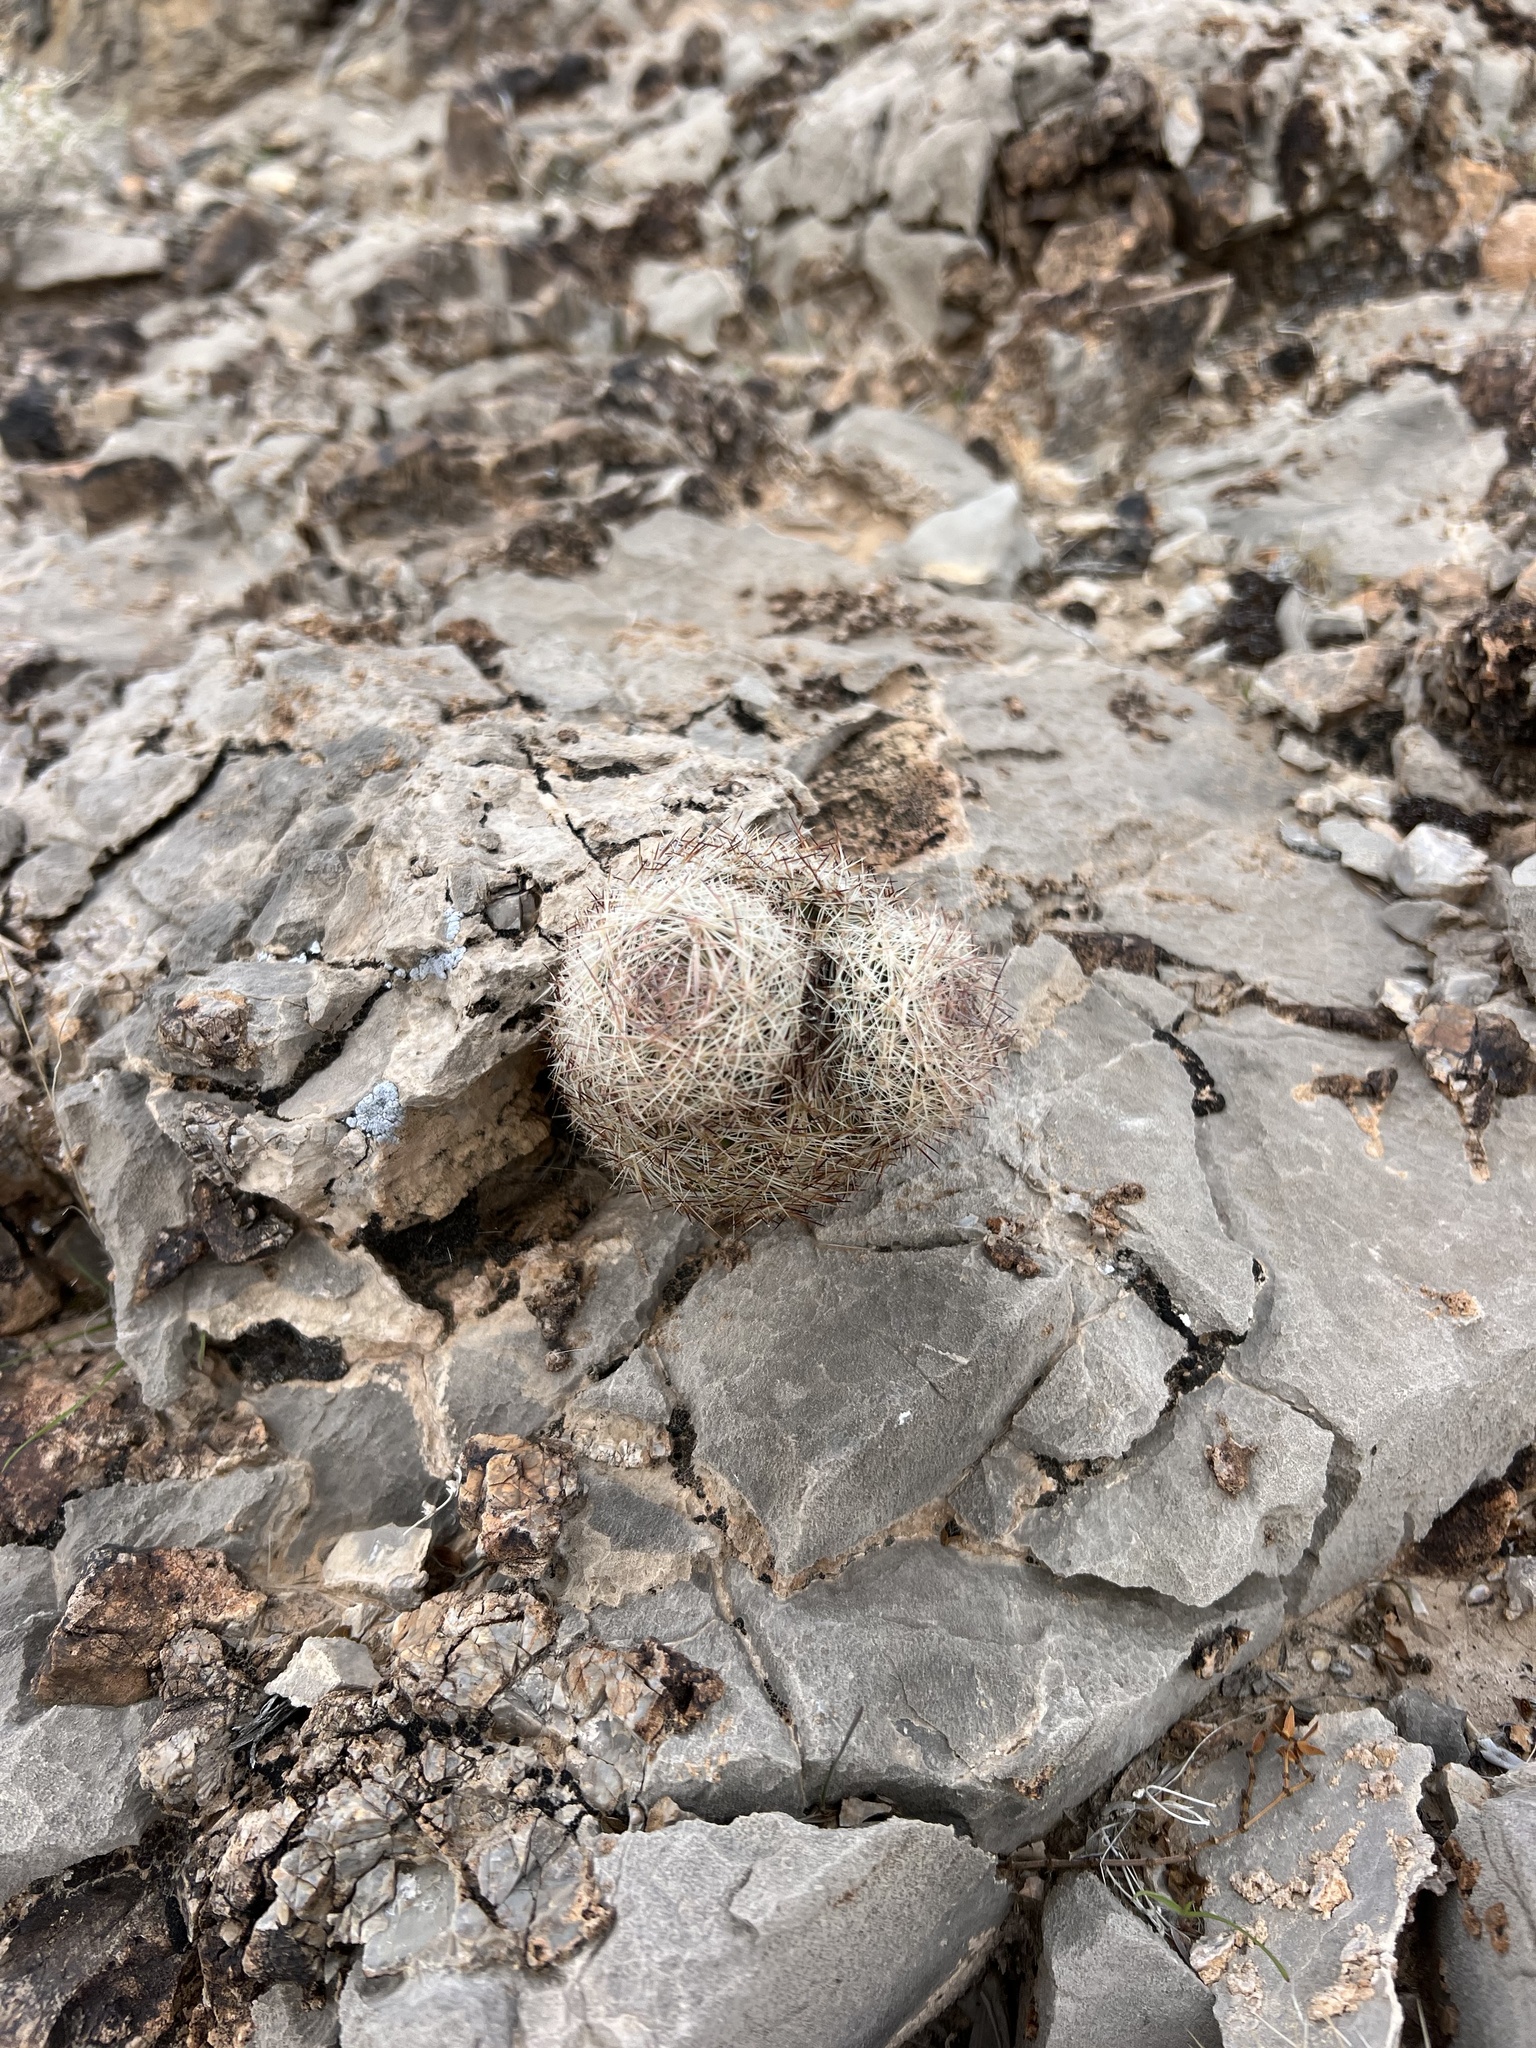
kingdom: Plantae
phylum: Tracheophyta
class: Magnoliopsida
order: Caryophyllales
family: Cactaceae
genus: Pelecyphora
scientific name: Pelecyphora dasyacantha
